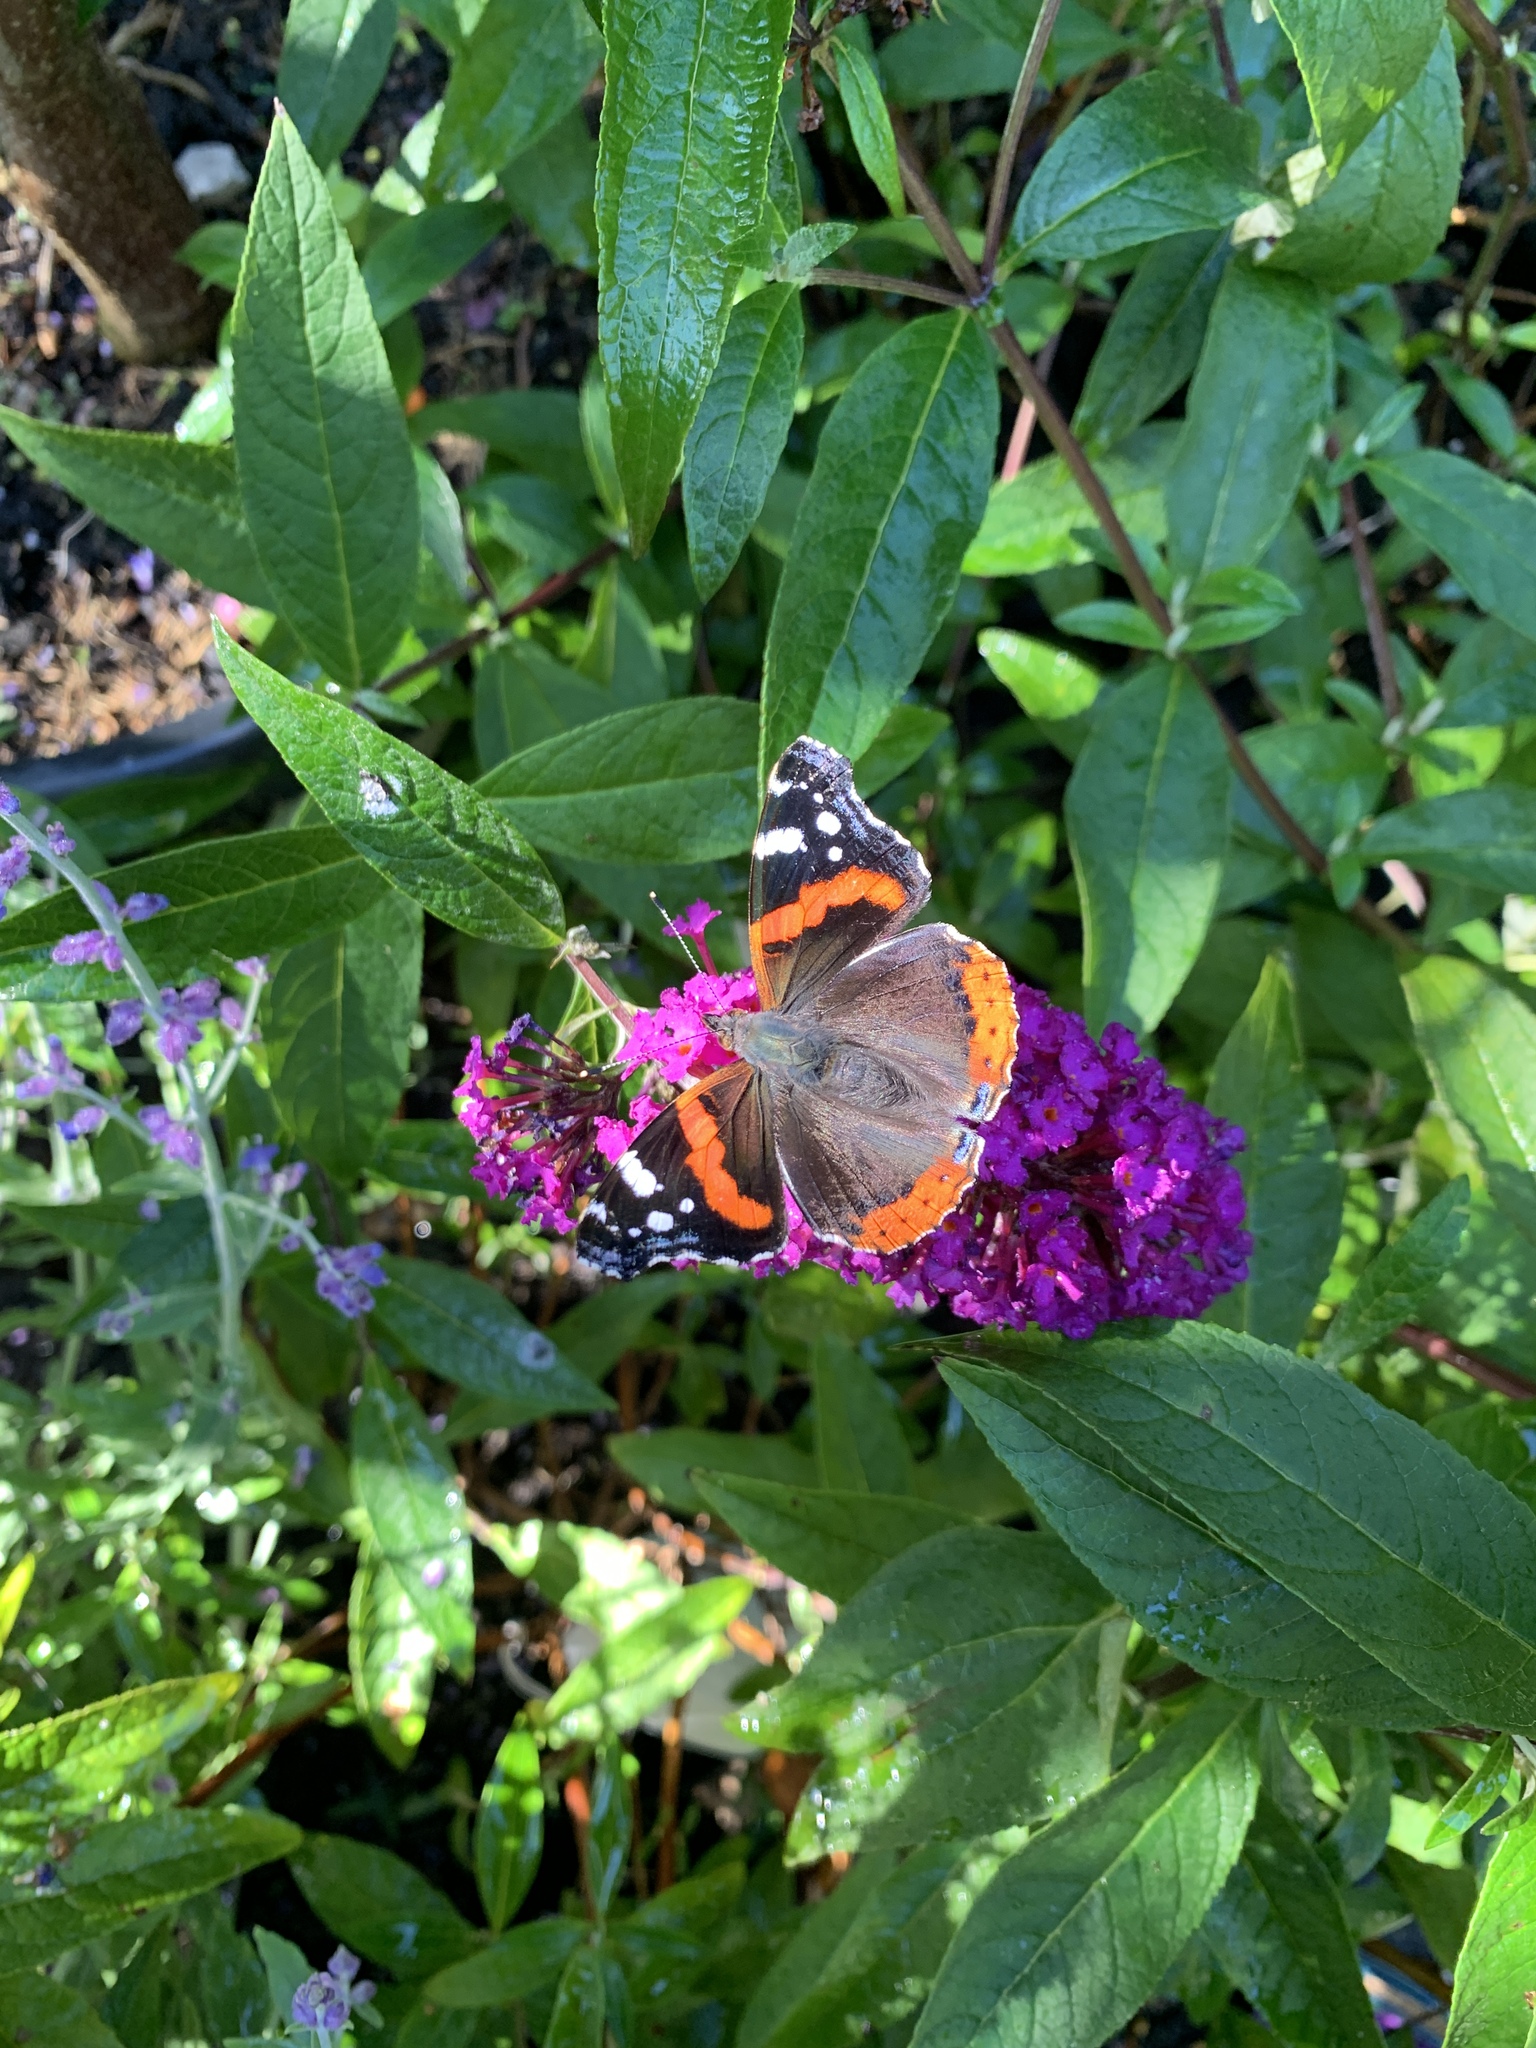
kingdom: Animalia
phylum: Arthropoda
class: Insecta
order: Lepidoptera
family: Nymphalidae
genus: Vanessa
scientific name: Vanessa atalanta
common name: Red admiral
